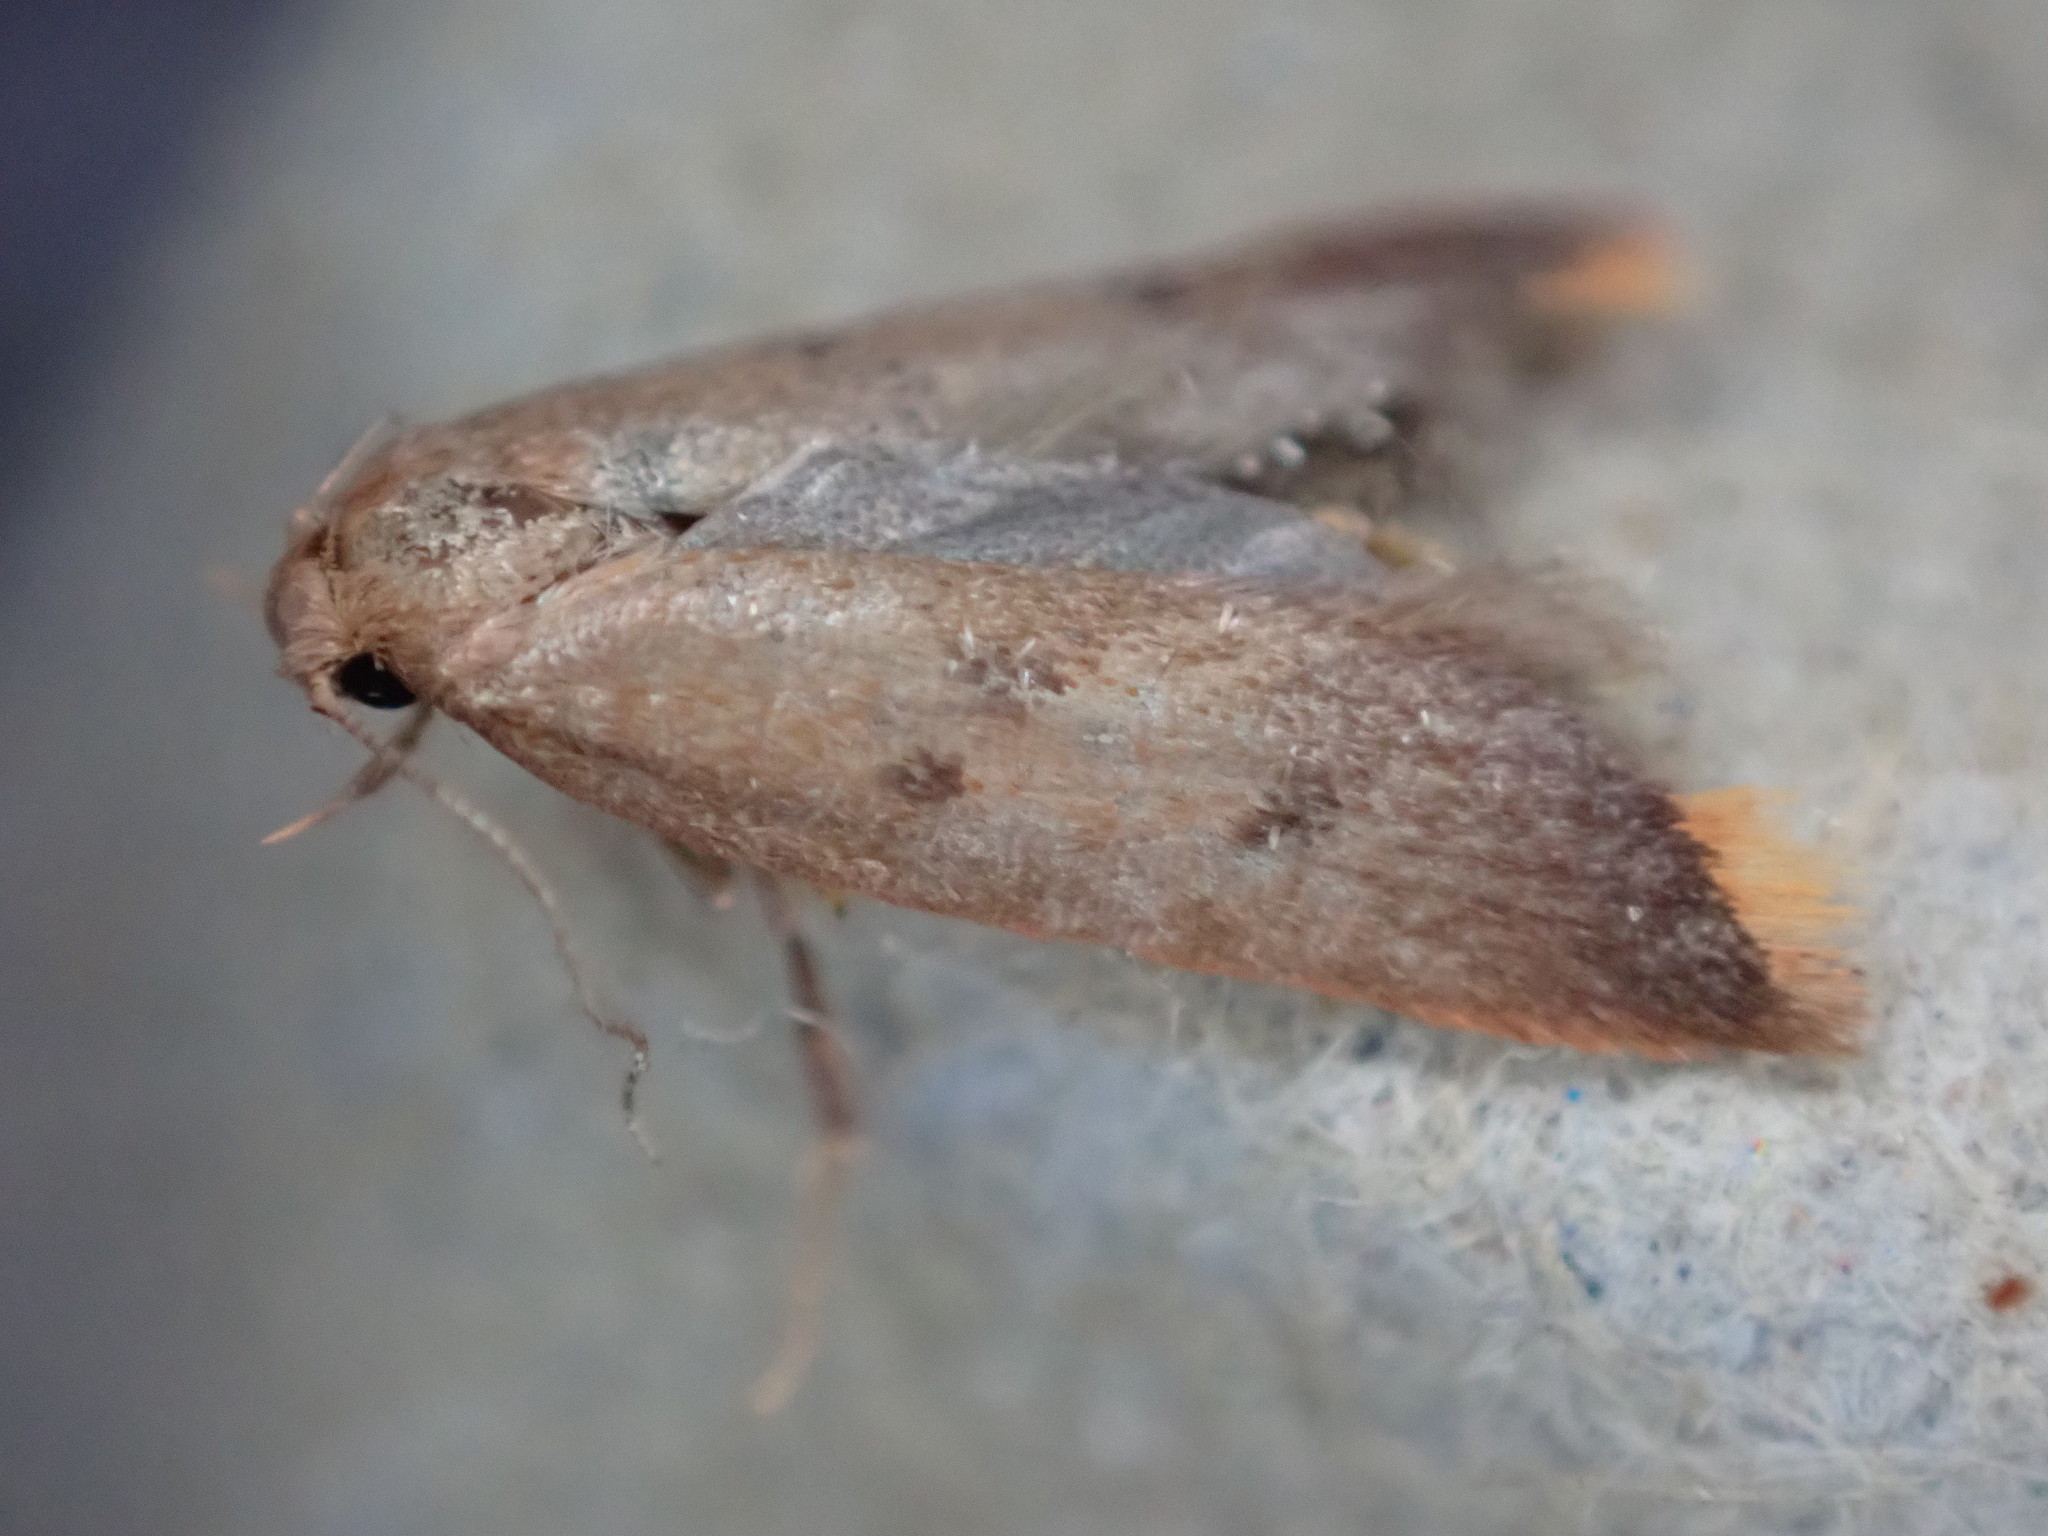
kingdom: Animalia
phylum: Arthropoda
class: Insecta
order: Lepidoptera
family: Oecophoridae
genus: Tachystola
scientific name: Tachystola acroxantha
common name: Ruddy streak
